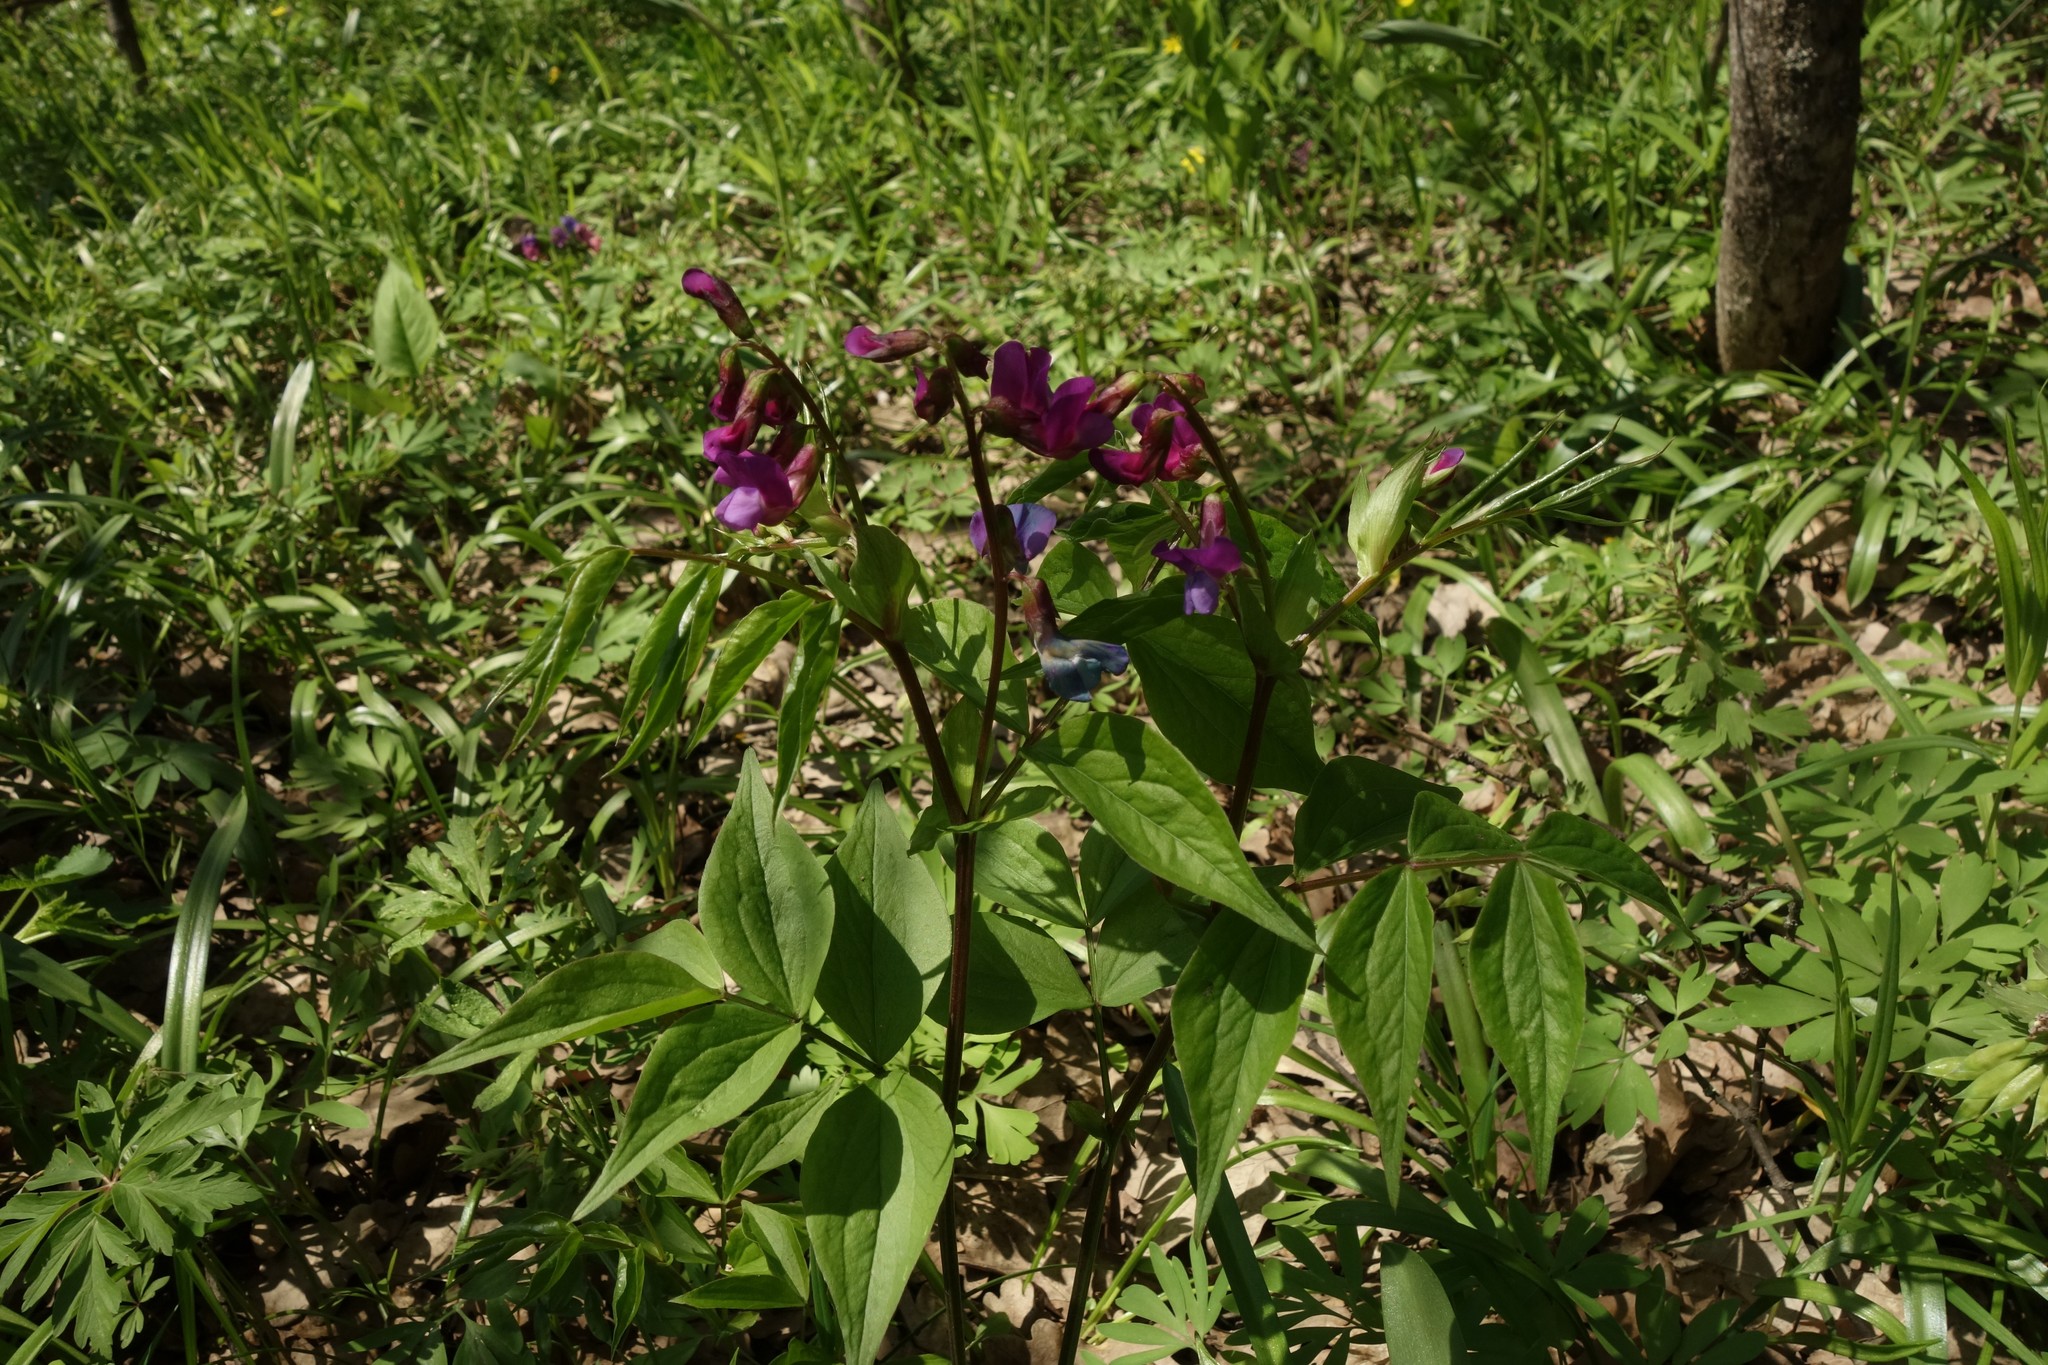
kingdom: Plantae
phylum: Tracheophyta
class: Magnoliopsida
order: Fabales
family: Fabaceae
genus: Lathyrus
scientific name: Lathyrus vernus
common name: Spring pea
